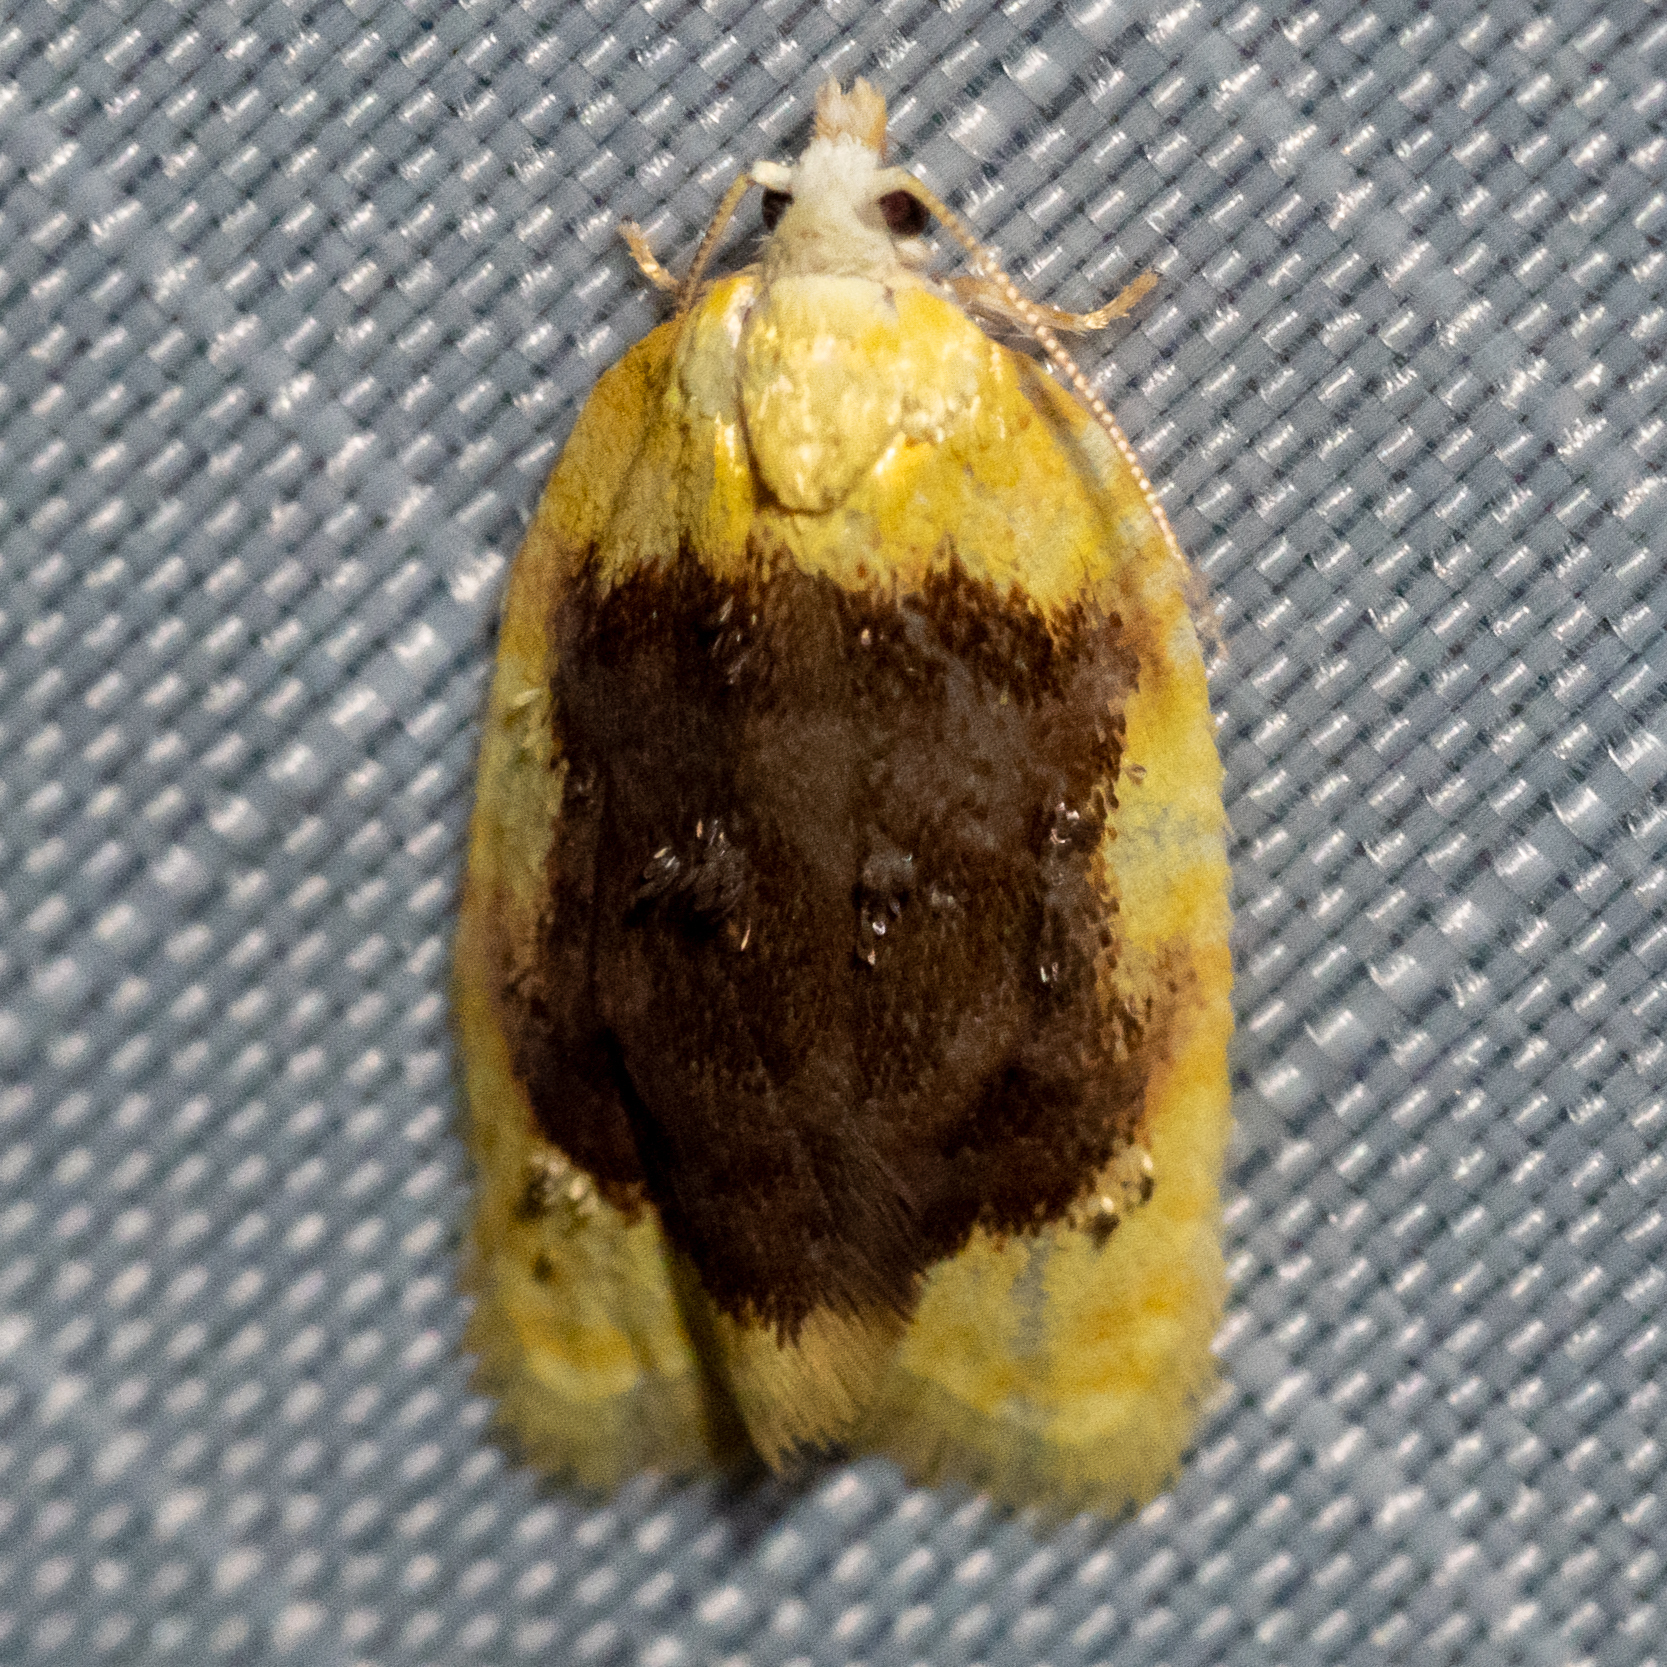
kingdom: Animalia
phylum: Arthropoda
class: Insecta
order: Lepidoptera
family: Tortricidae
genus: Acleris
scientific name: Acleris semipurpurana
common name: Oak leaftier moth
